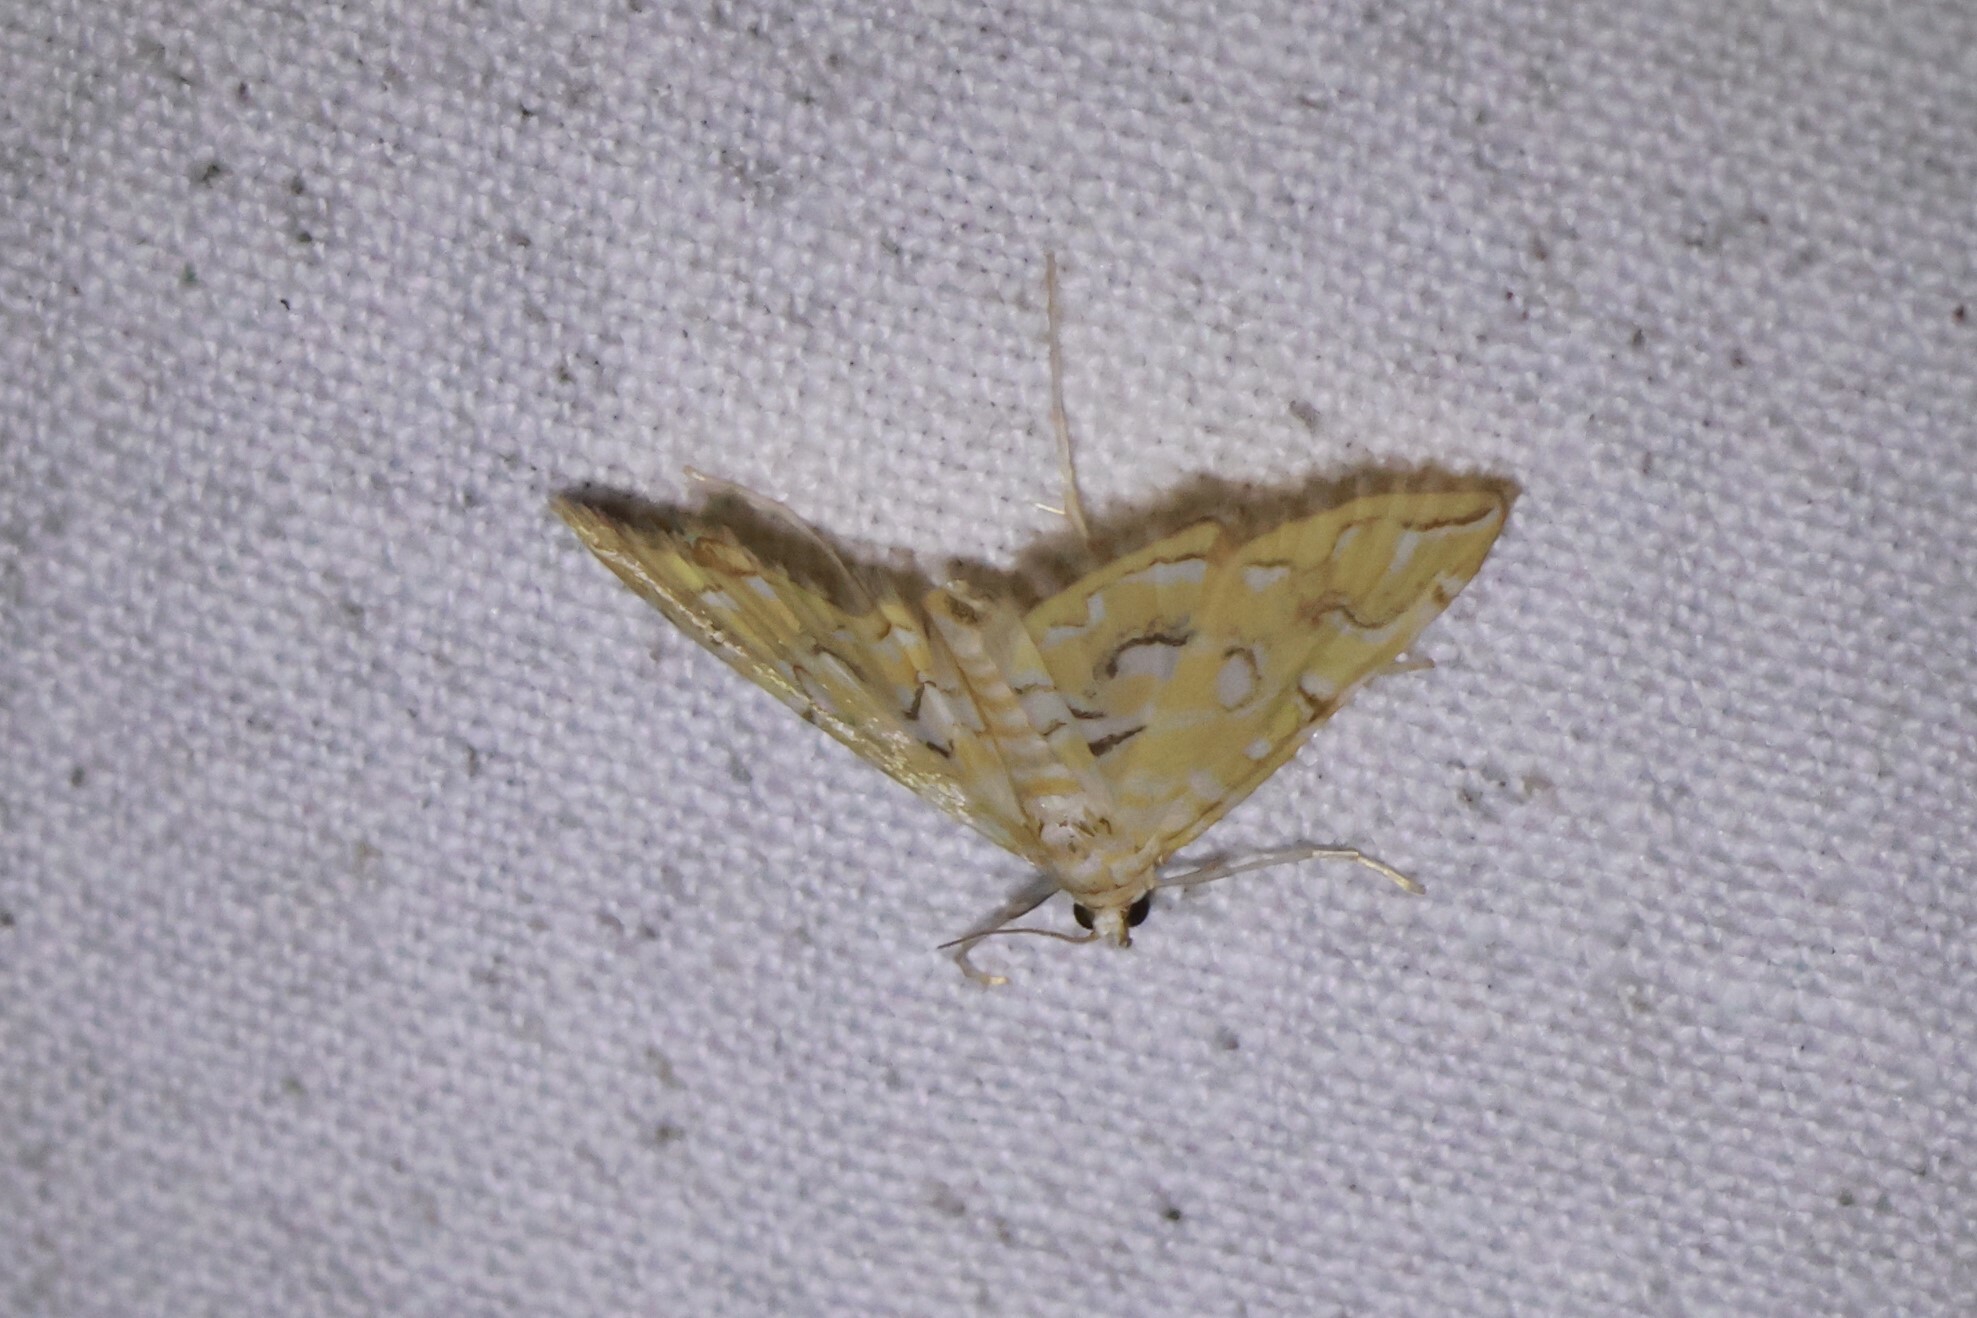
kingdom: Animalia
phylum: Arthropoda
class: Insecta
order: Lepidoptera
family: Crambidae
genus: Elophila
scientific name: Elophila icciusalis
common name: Pondside pyralid moth
